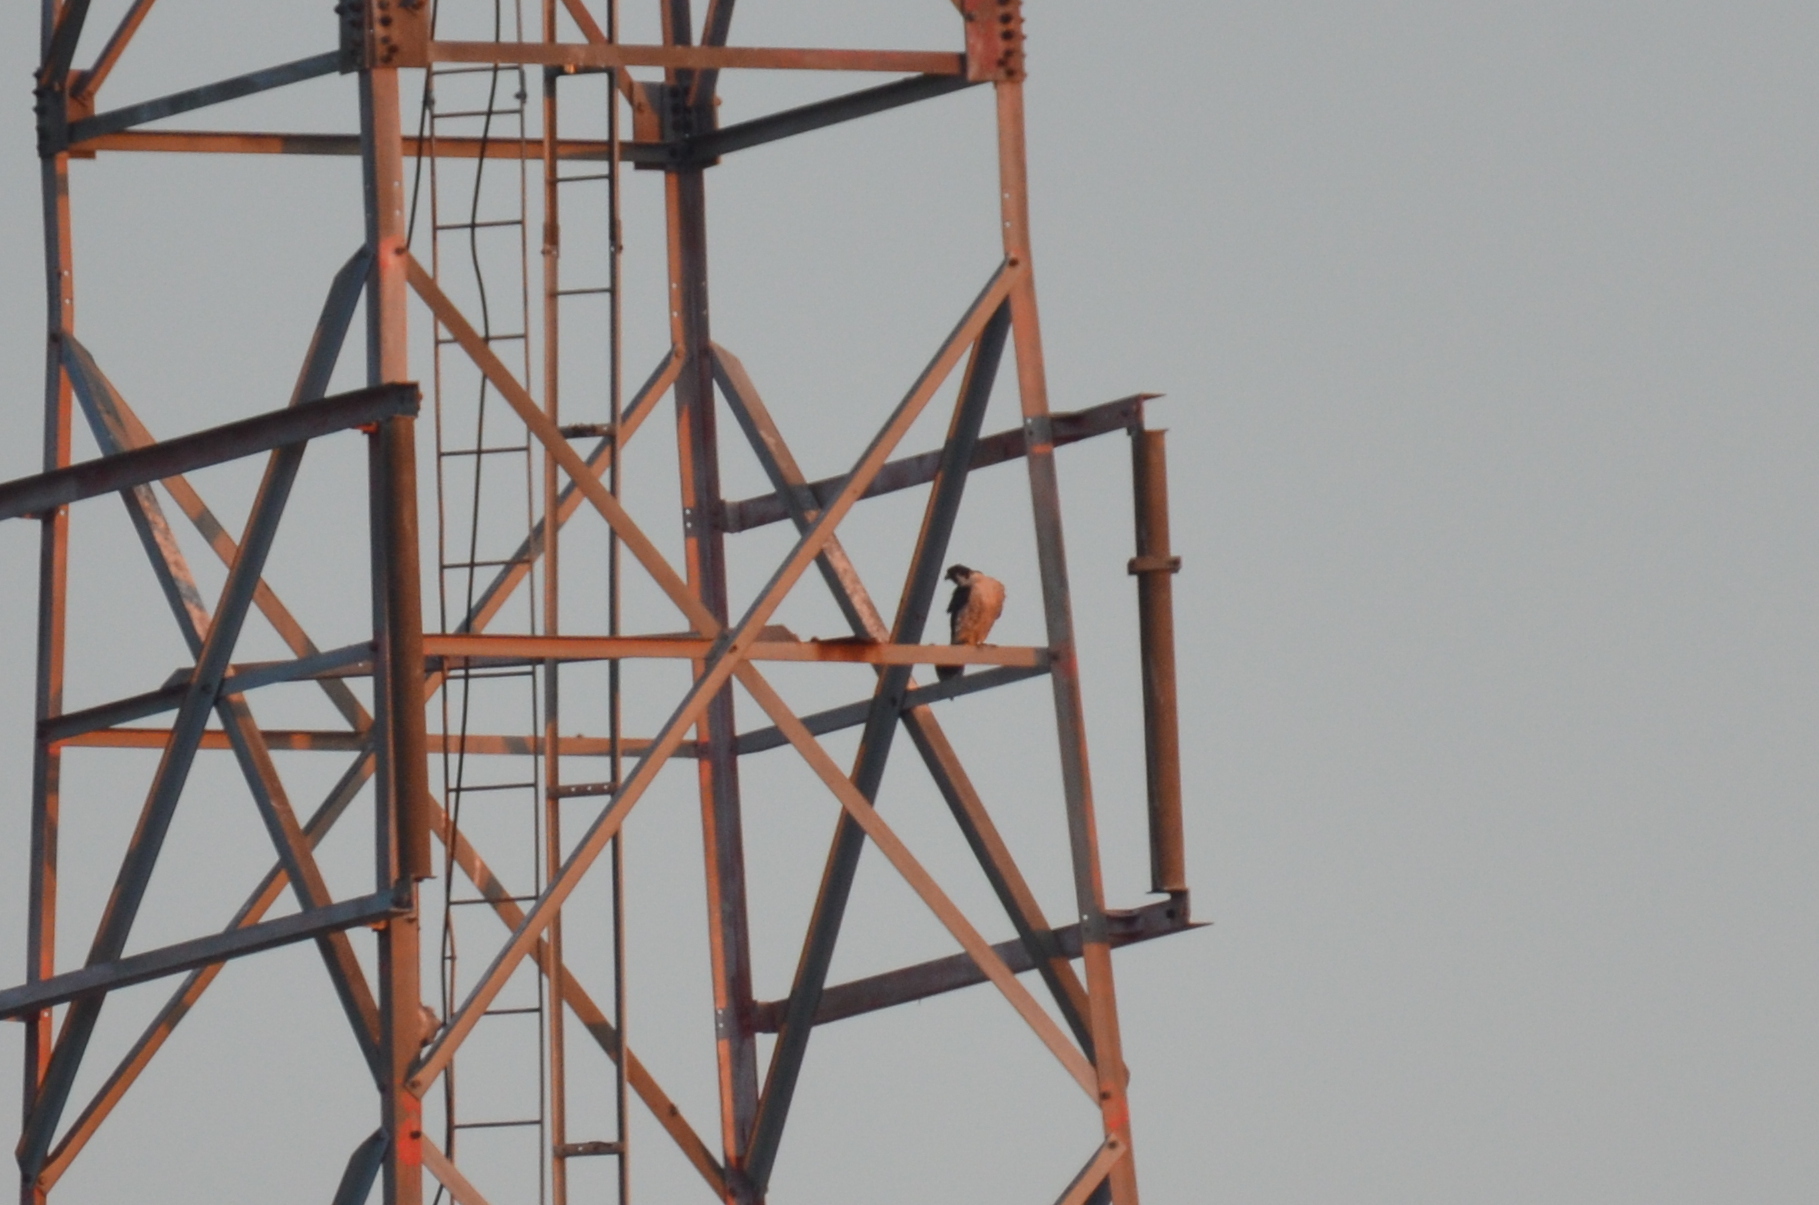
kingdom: Animalia
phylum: Chordata
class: Aves
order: Falconiformes
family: Falconidae
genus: Falco
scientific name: Falco peregrinus
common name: Peregrine falcon
